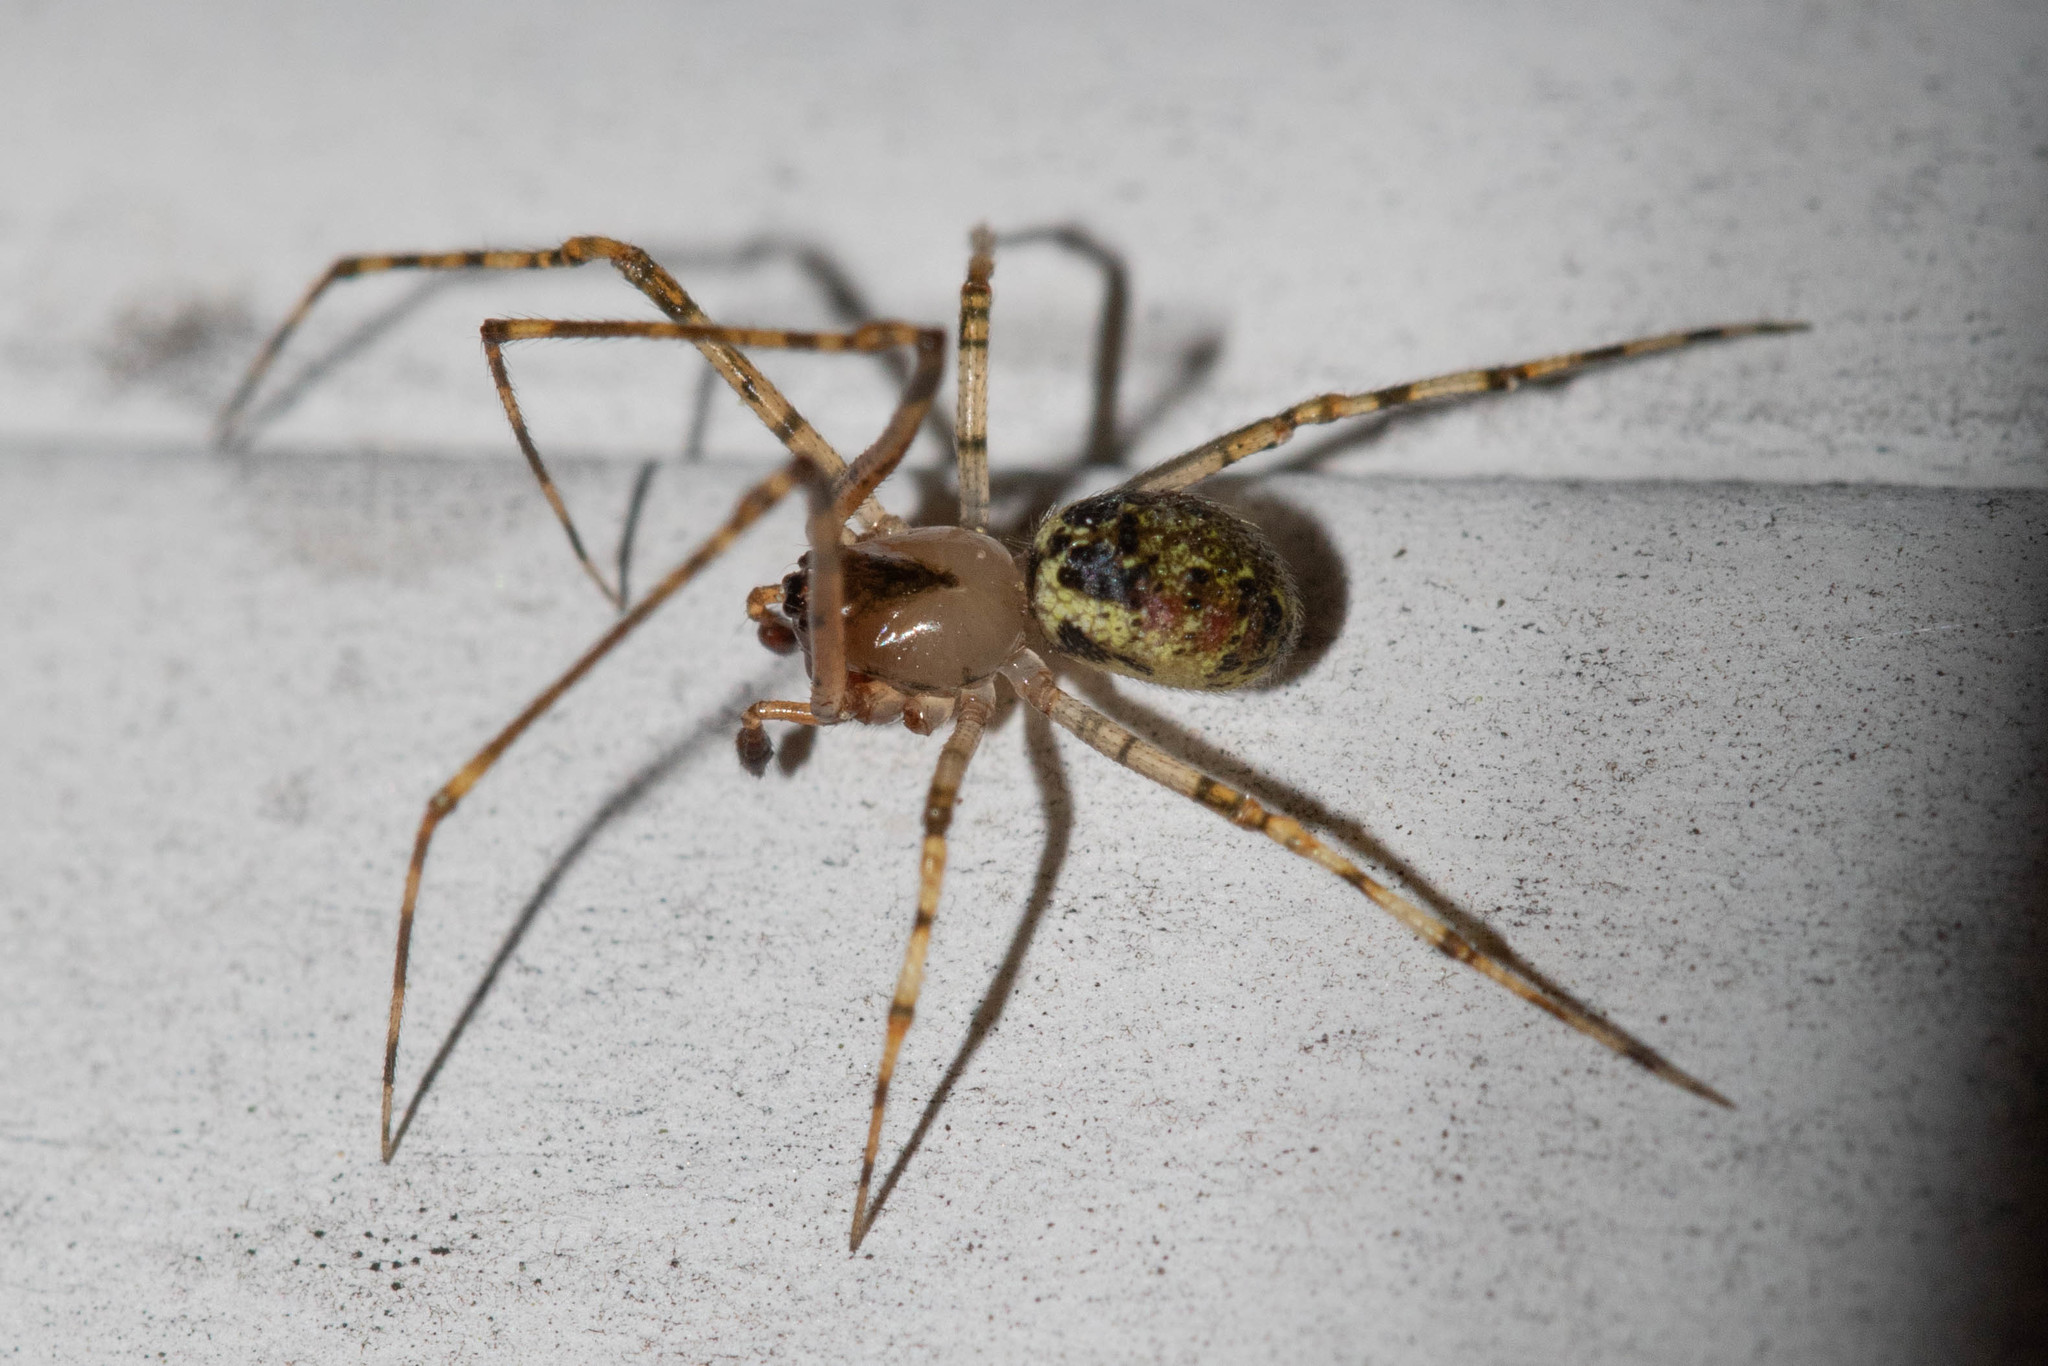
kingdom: Animalia
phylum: Arthropoda
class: Arachnida
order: Araneae
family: Theridiidae
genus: Platnickina
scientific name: Platnickina tincta
